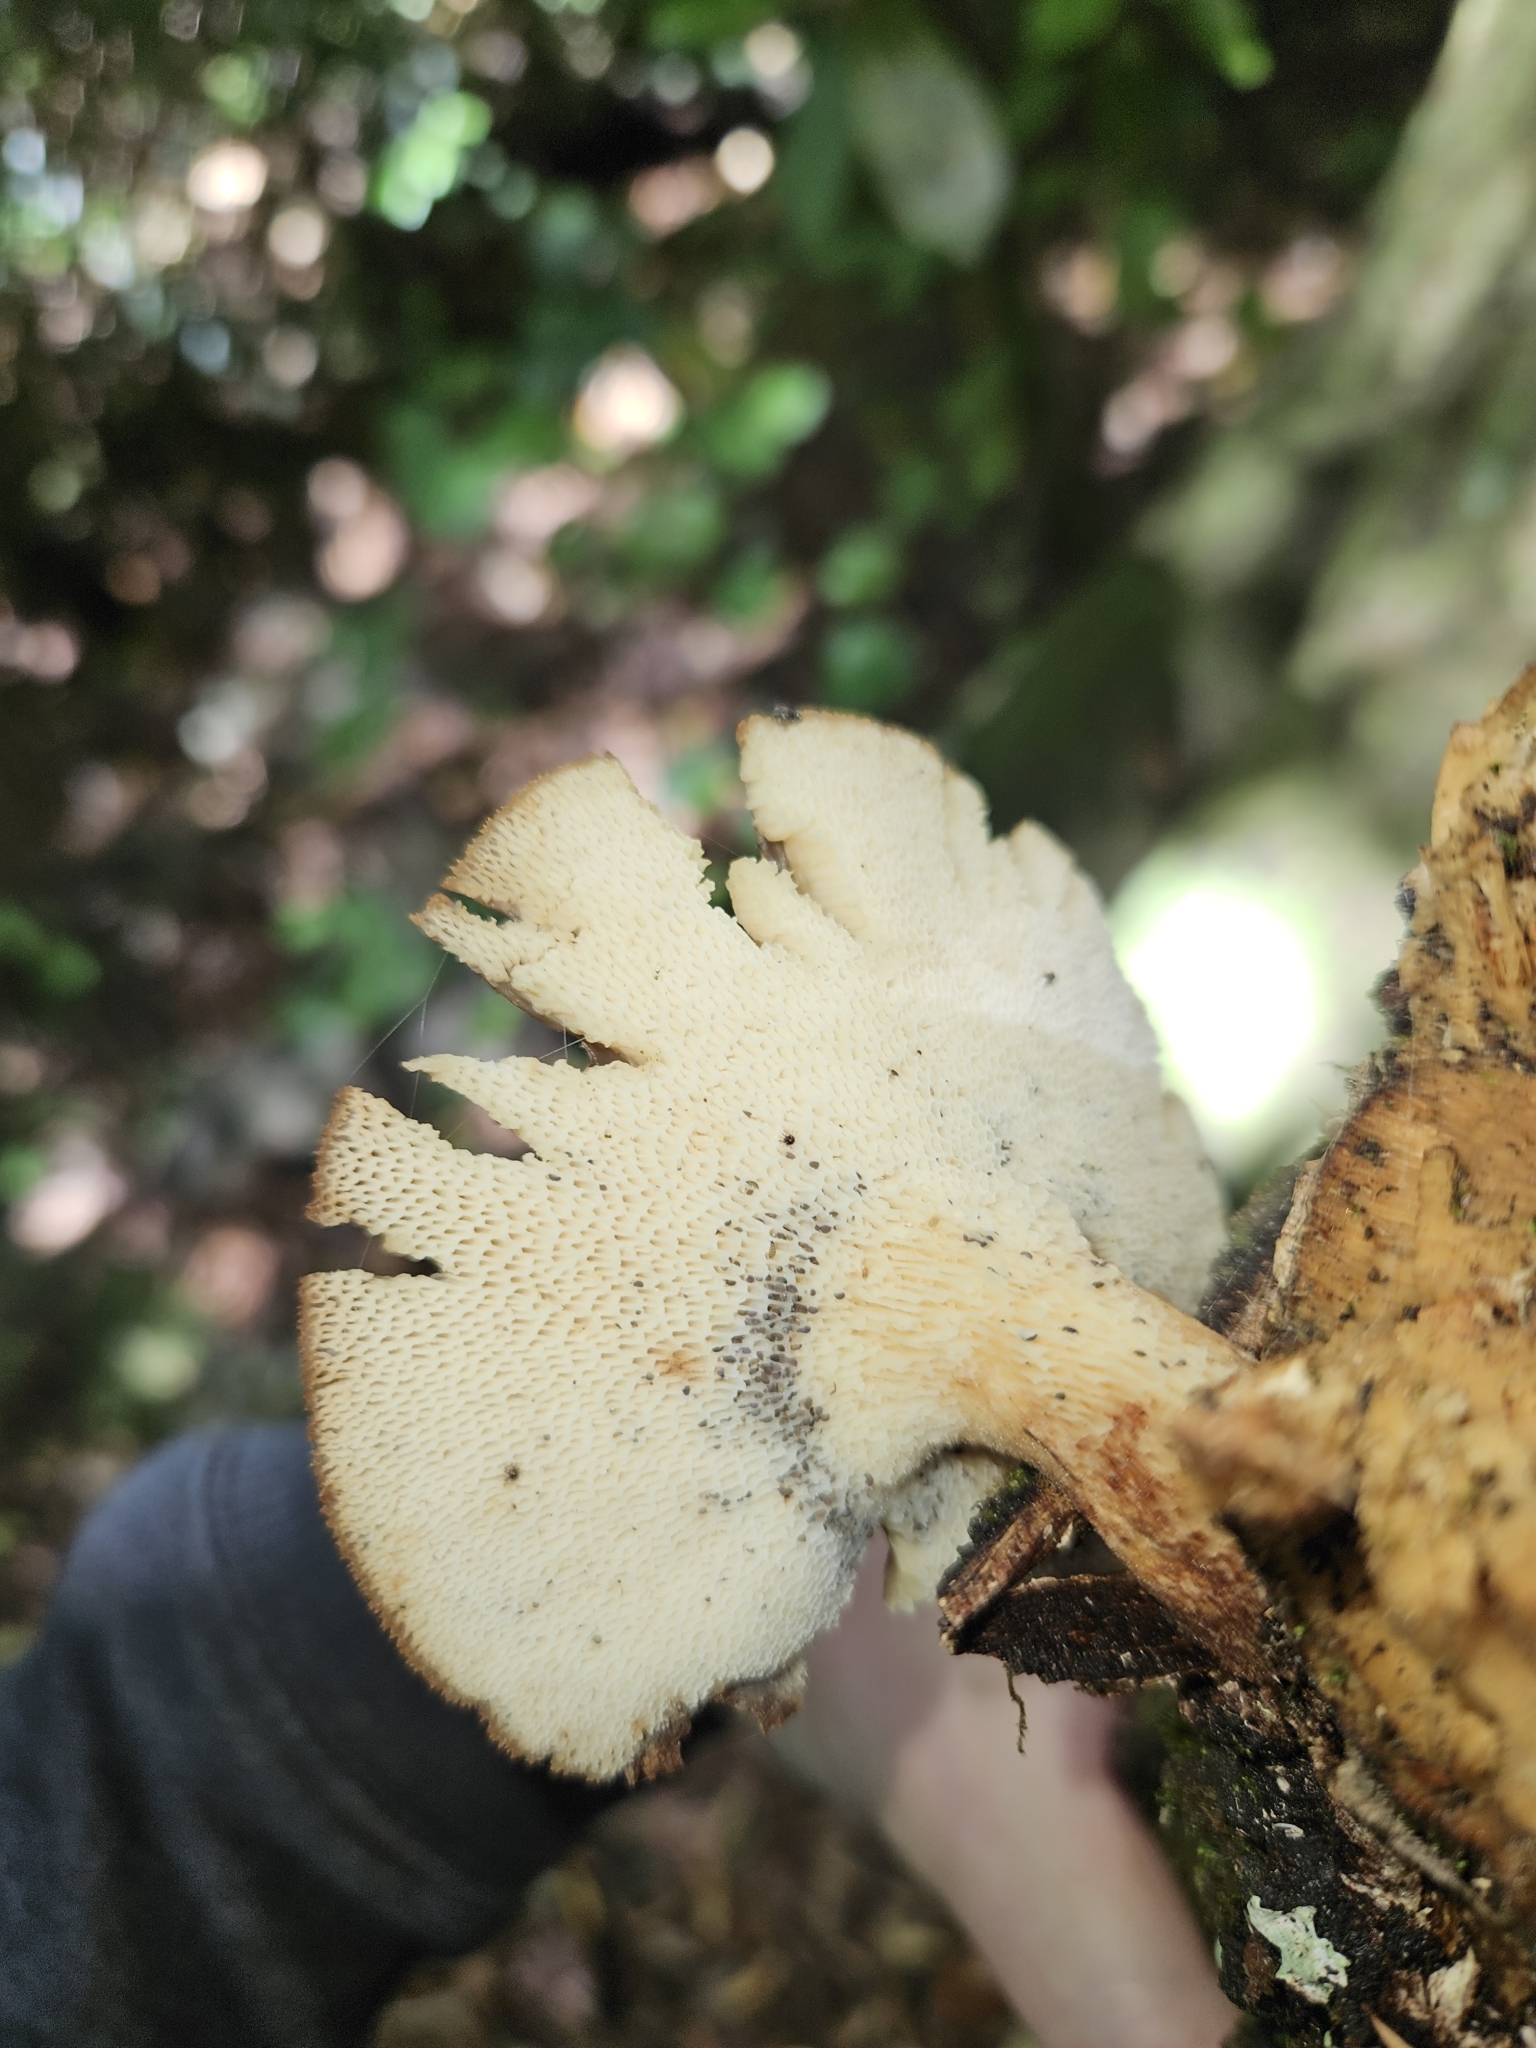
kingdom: Fungi
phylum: Basidiomycota
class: Agaricomycetes
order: Polyporales
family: Polyporaceae
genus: Lentinus
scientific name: Lentinus arcularius
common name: Spring polypore
